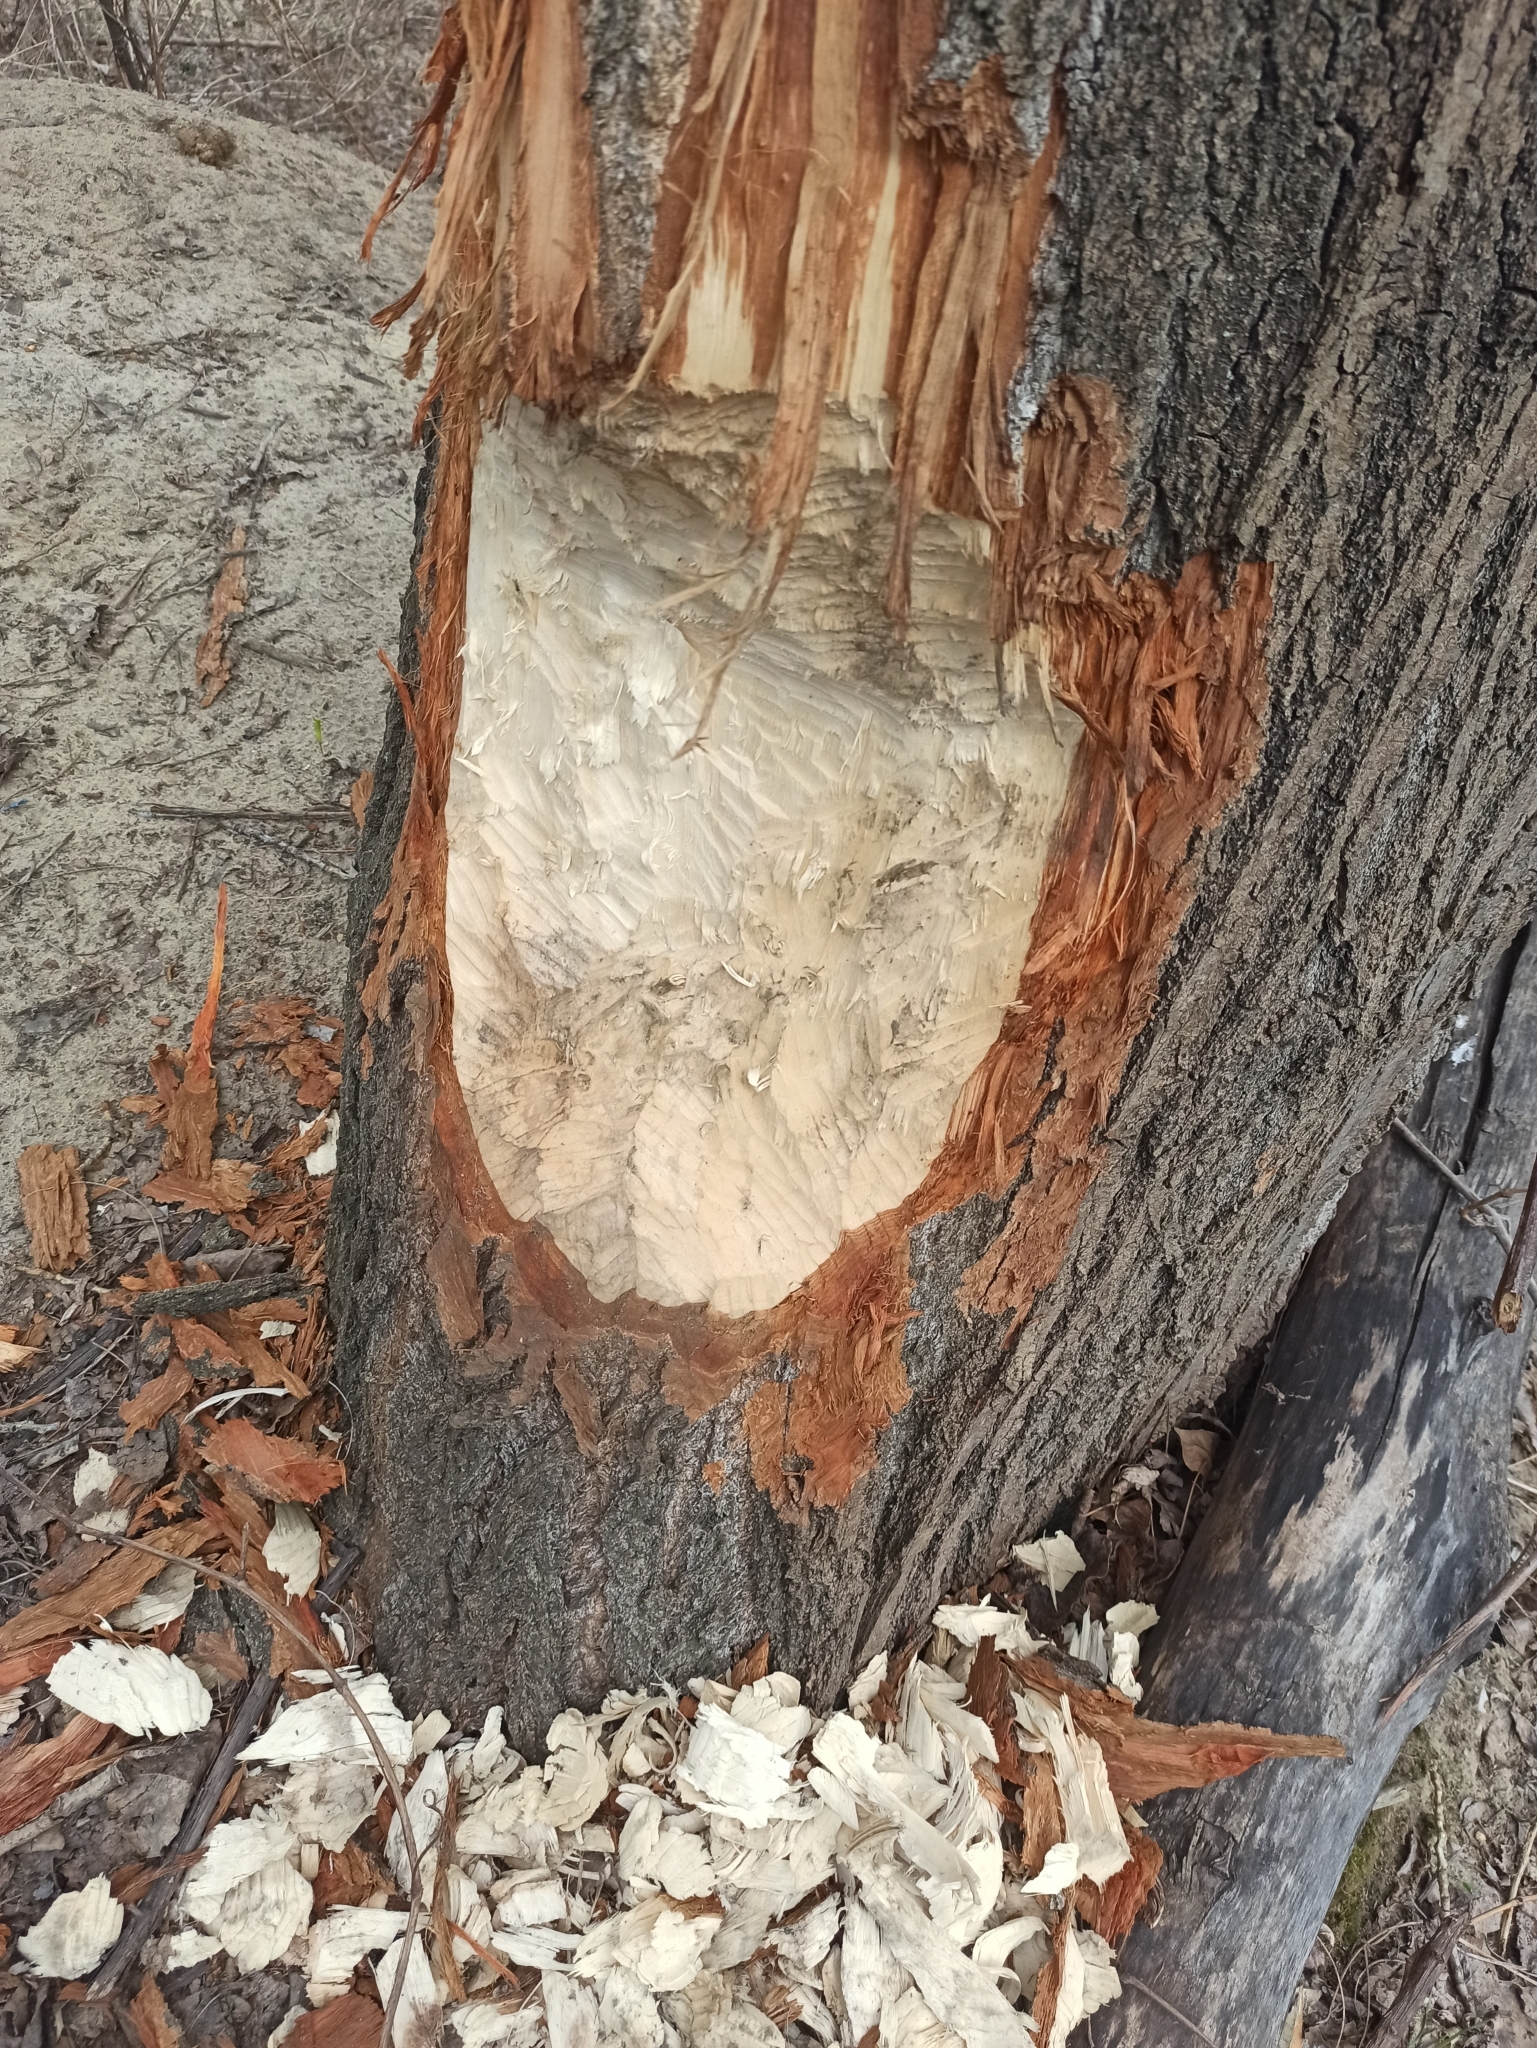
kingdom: Animalia
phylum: Chordata
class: Mammalia
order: Rodentia
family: Castoridae
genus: Castor
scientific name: Castor fiber
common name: Eurasian beaver
